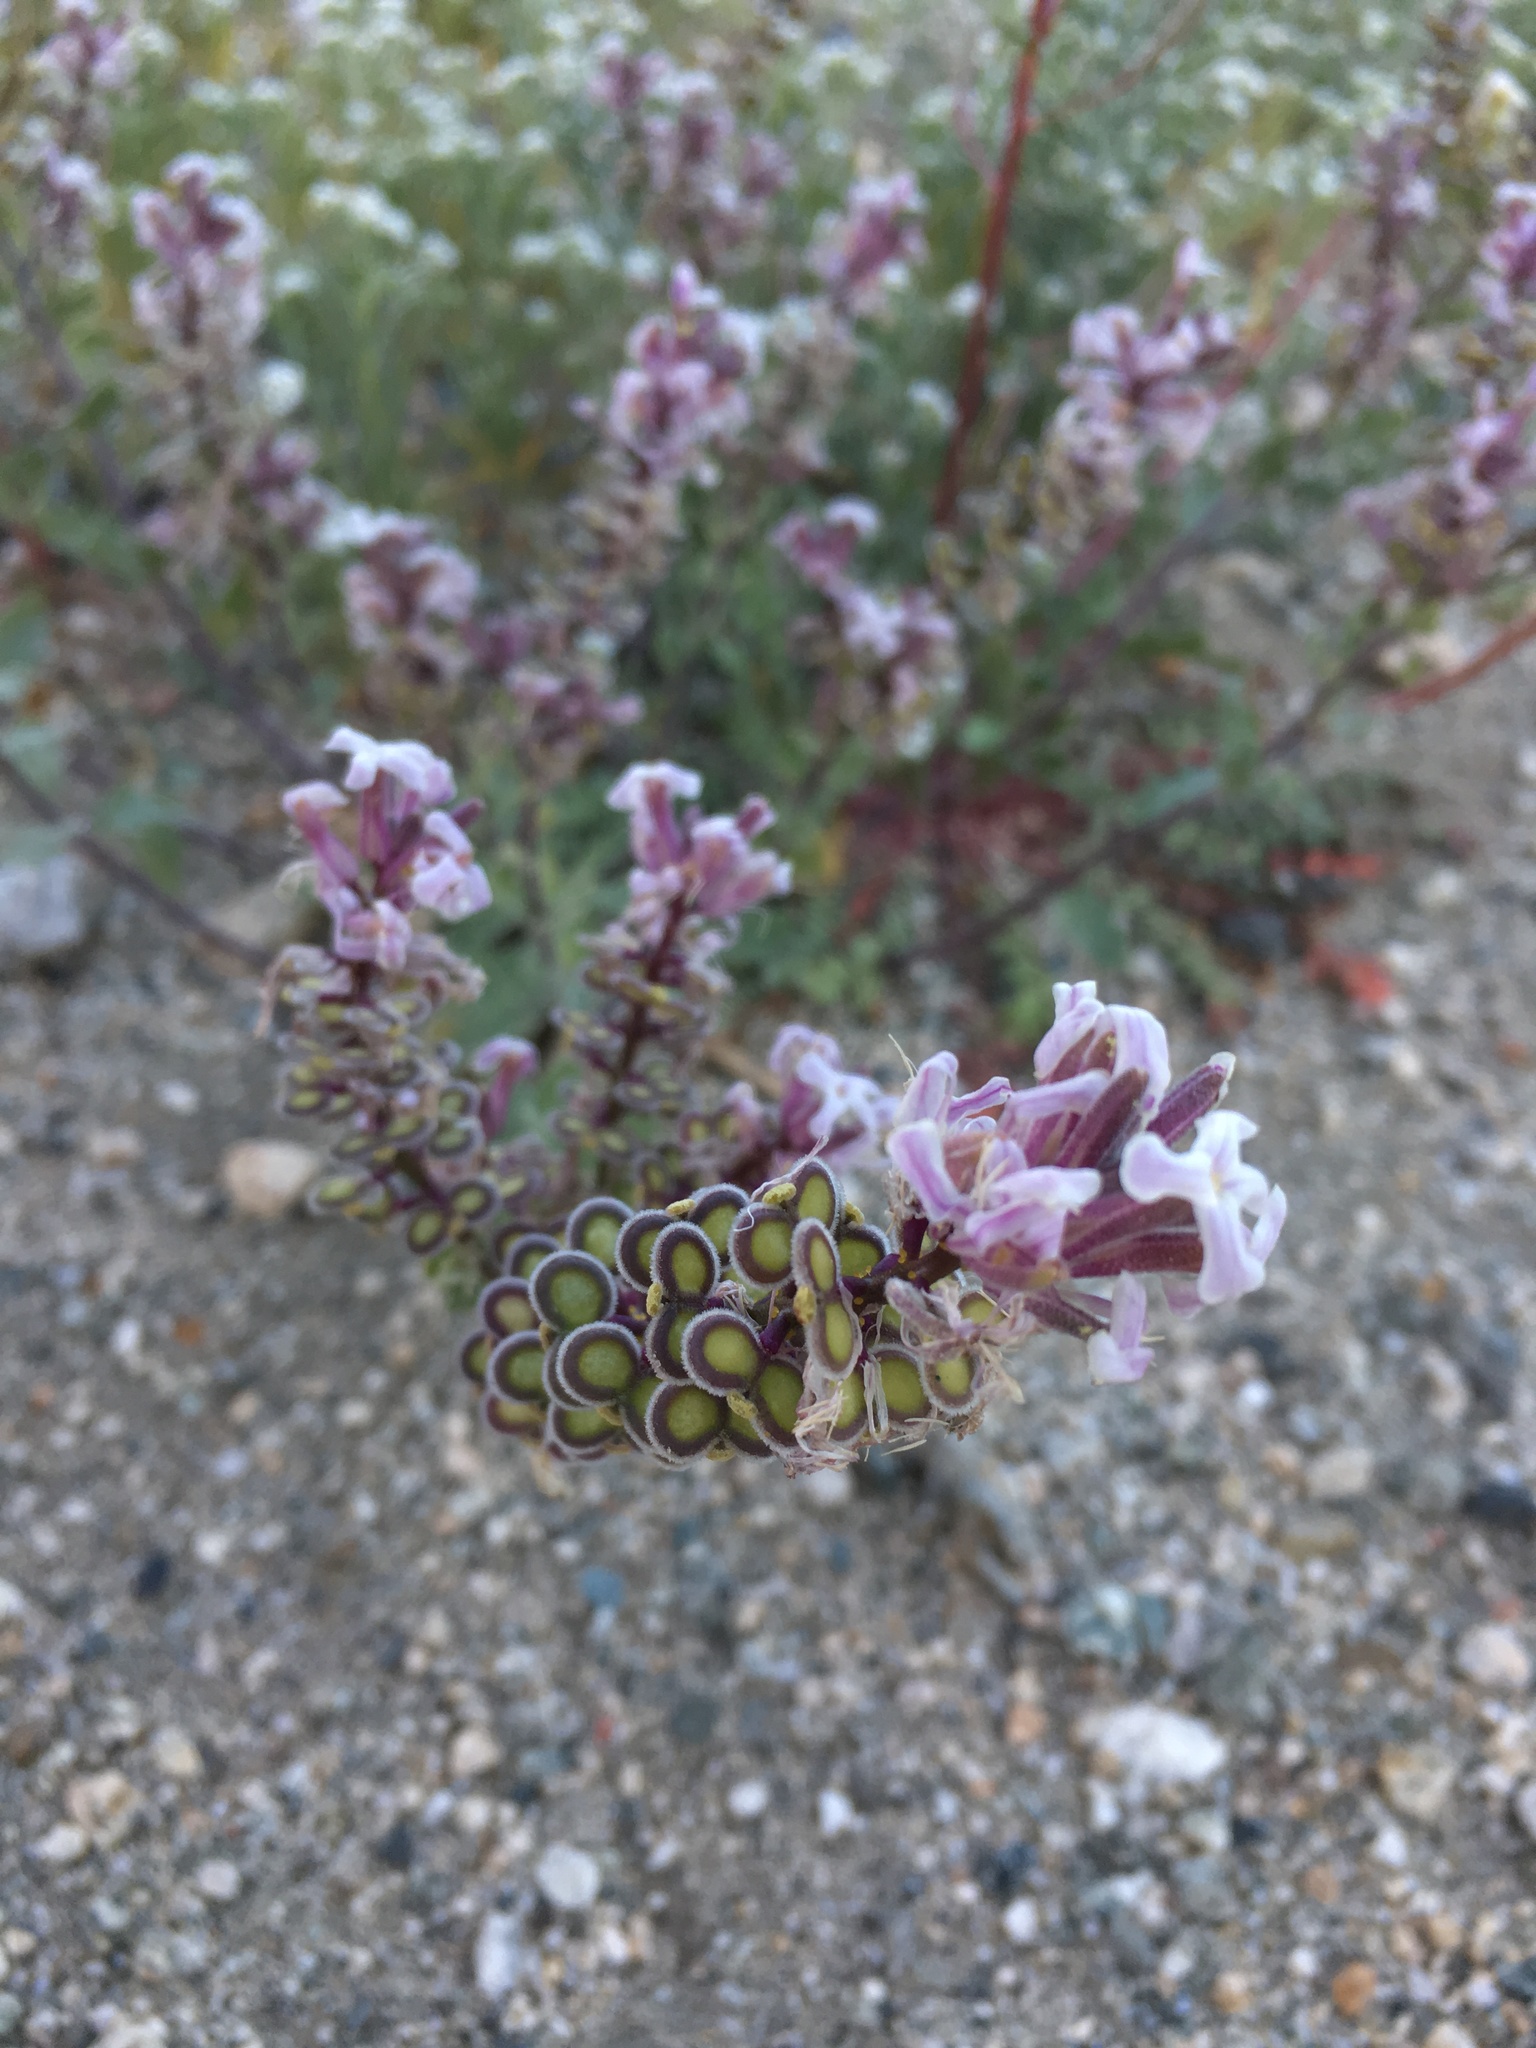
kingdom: Plantae
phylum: Tracheophyta
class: Magnoliopsida
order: Brassicales
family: Brassicaceae
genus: Dithyrea
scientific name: Dithyrea californica
